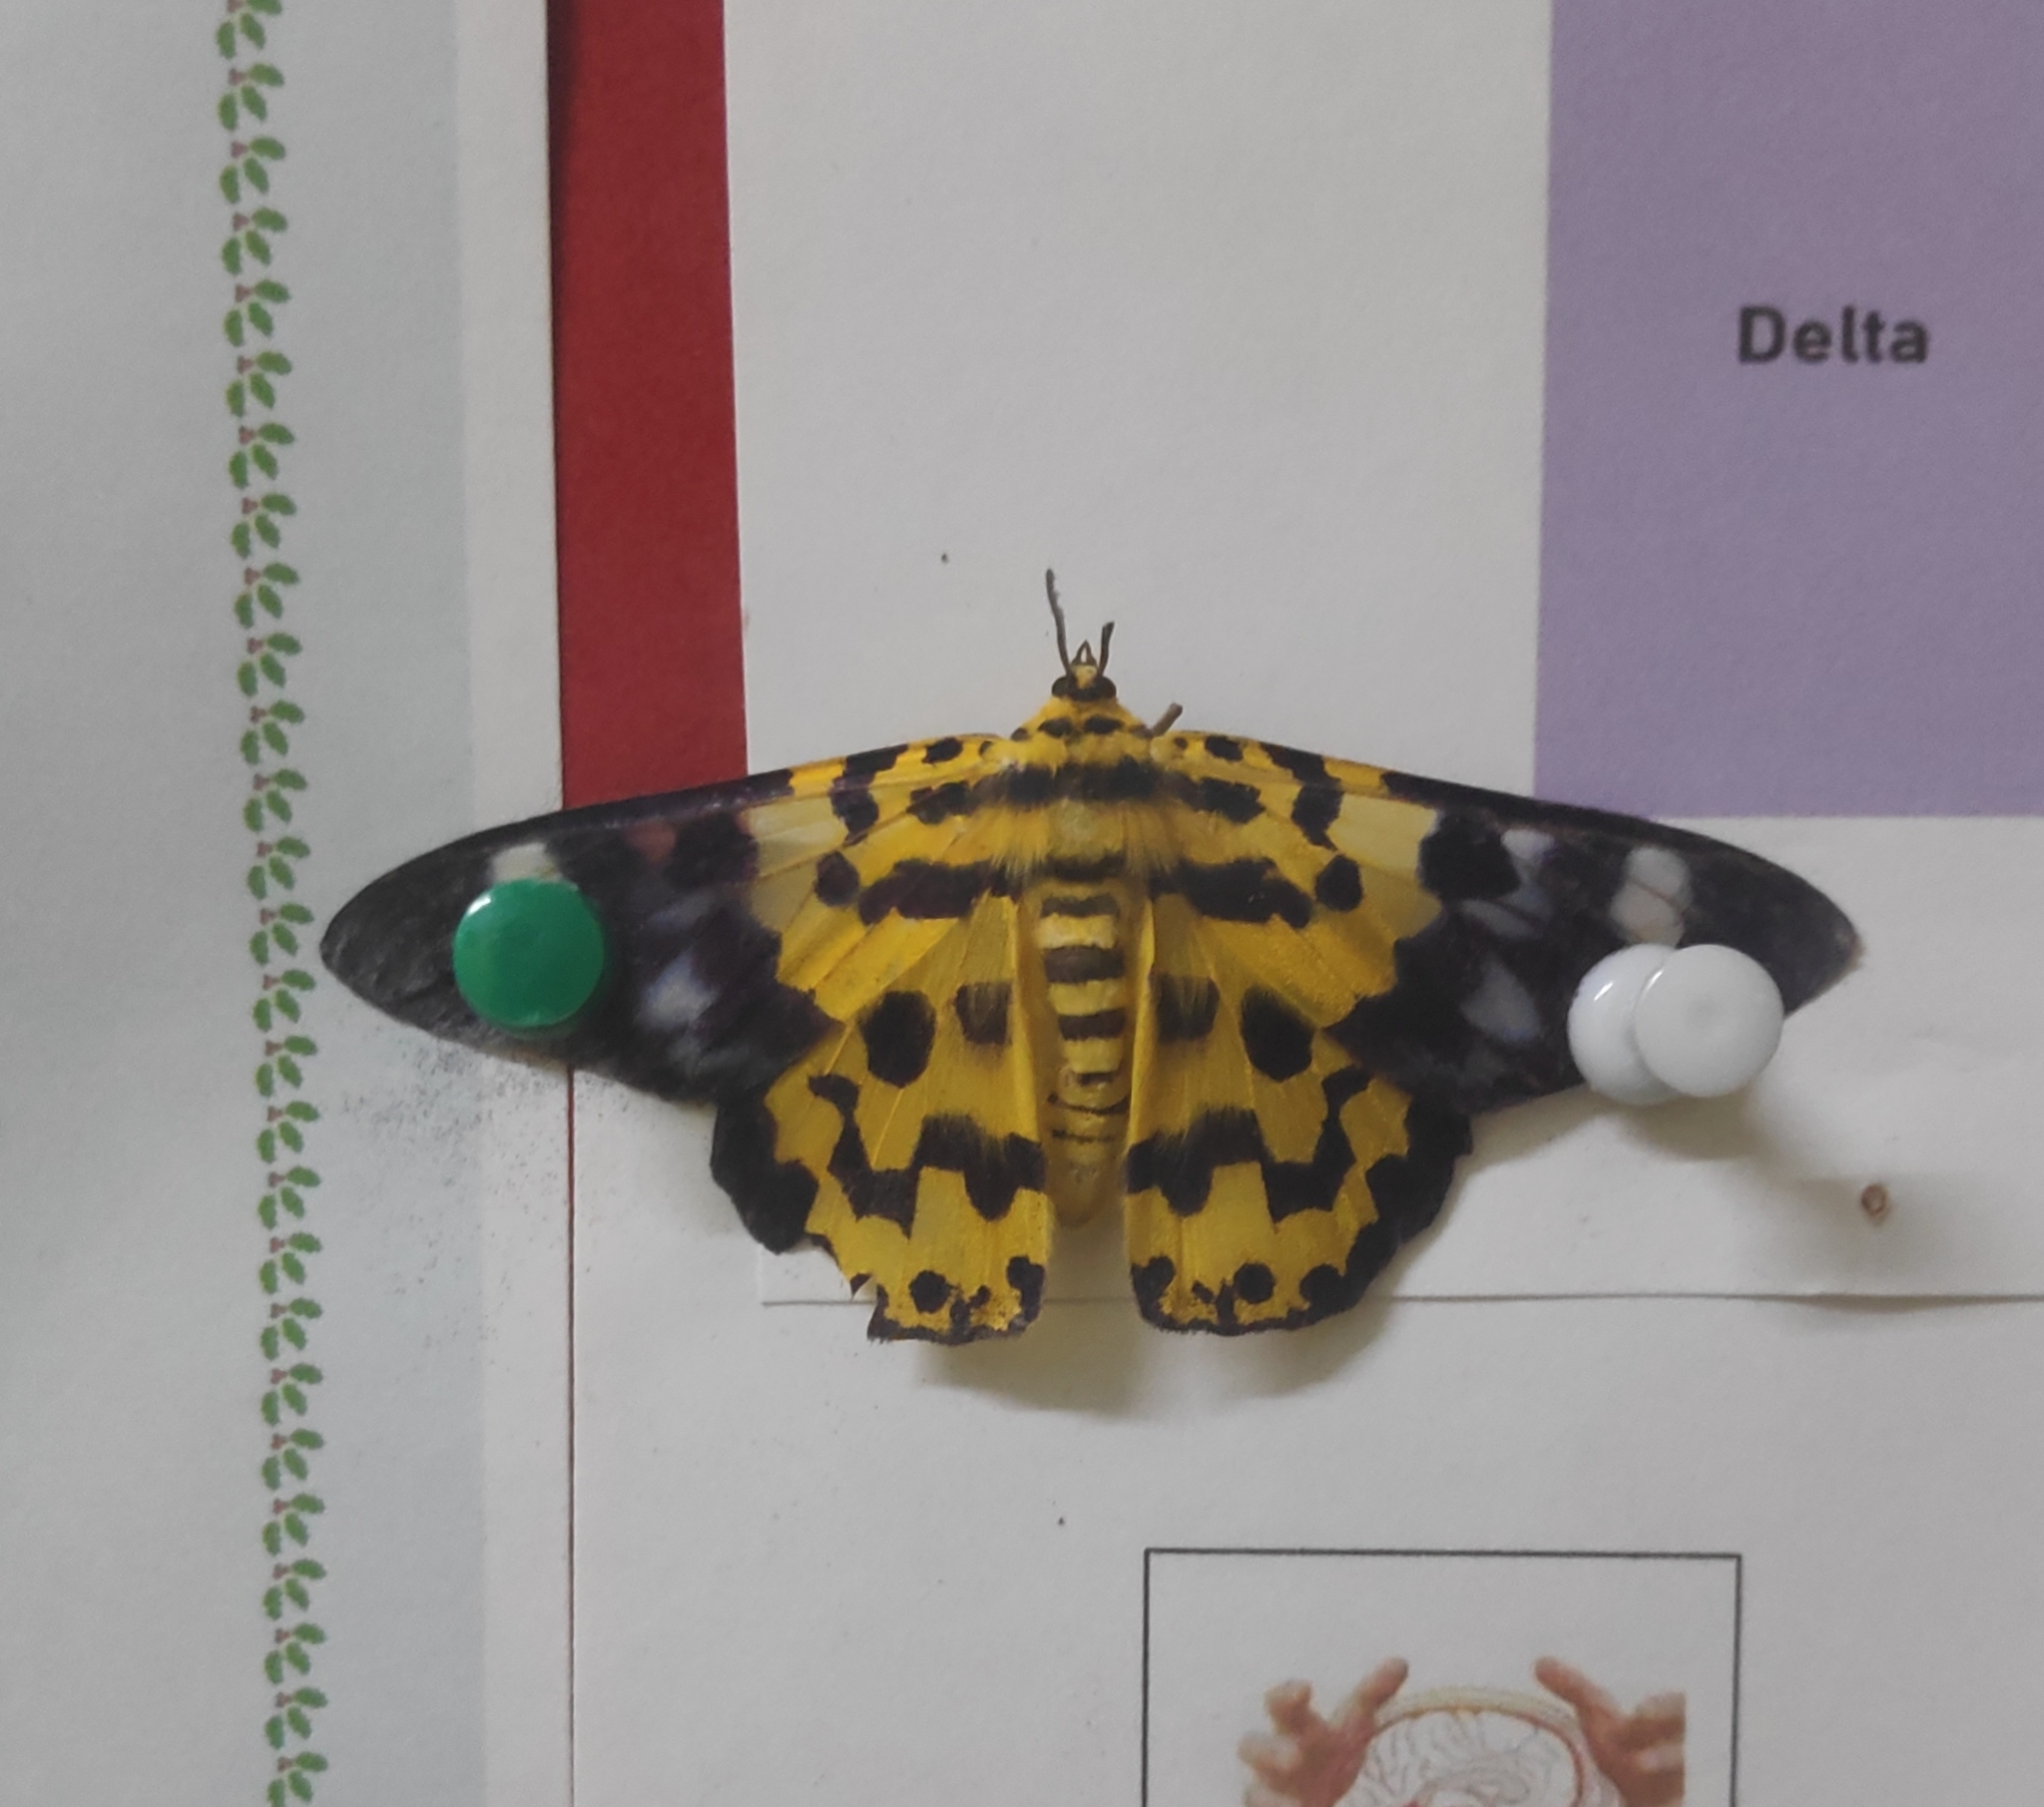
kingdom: Animalia
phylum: Arthropoda
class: Insecta
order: Lepidoptera
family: Geometridae
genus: Dysphania
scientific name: Dysphania militaris
